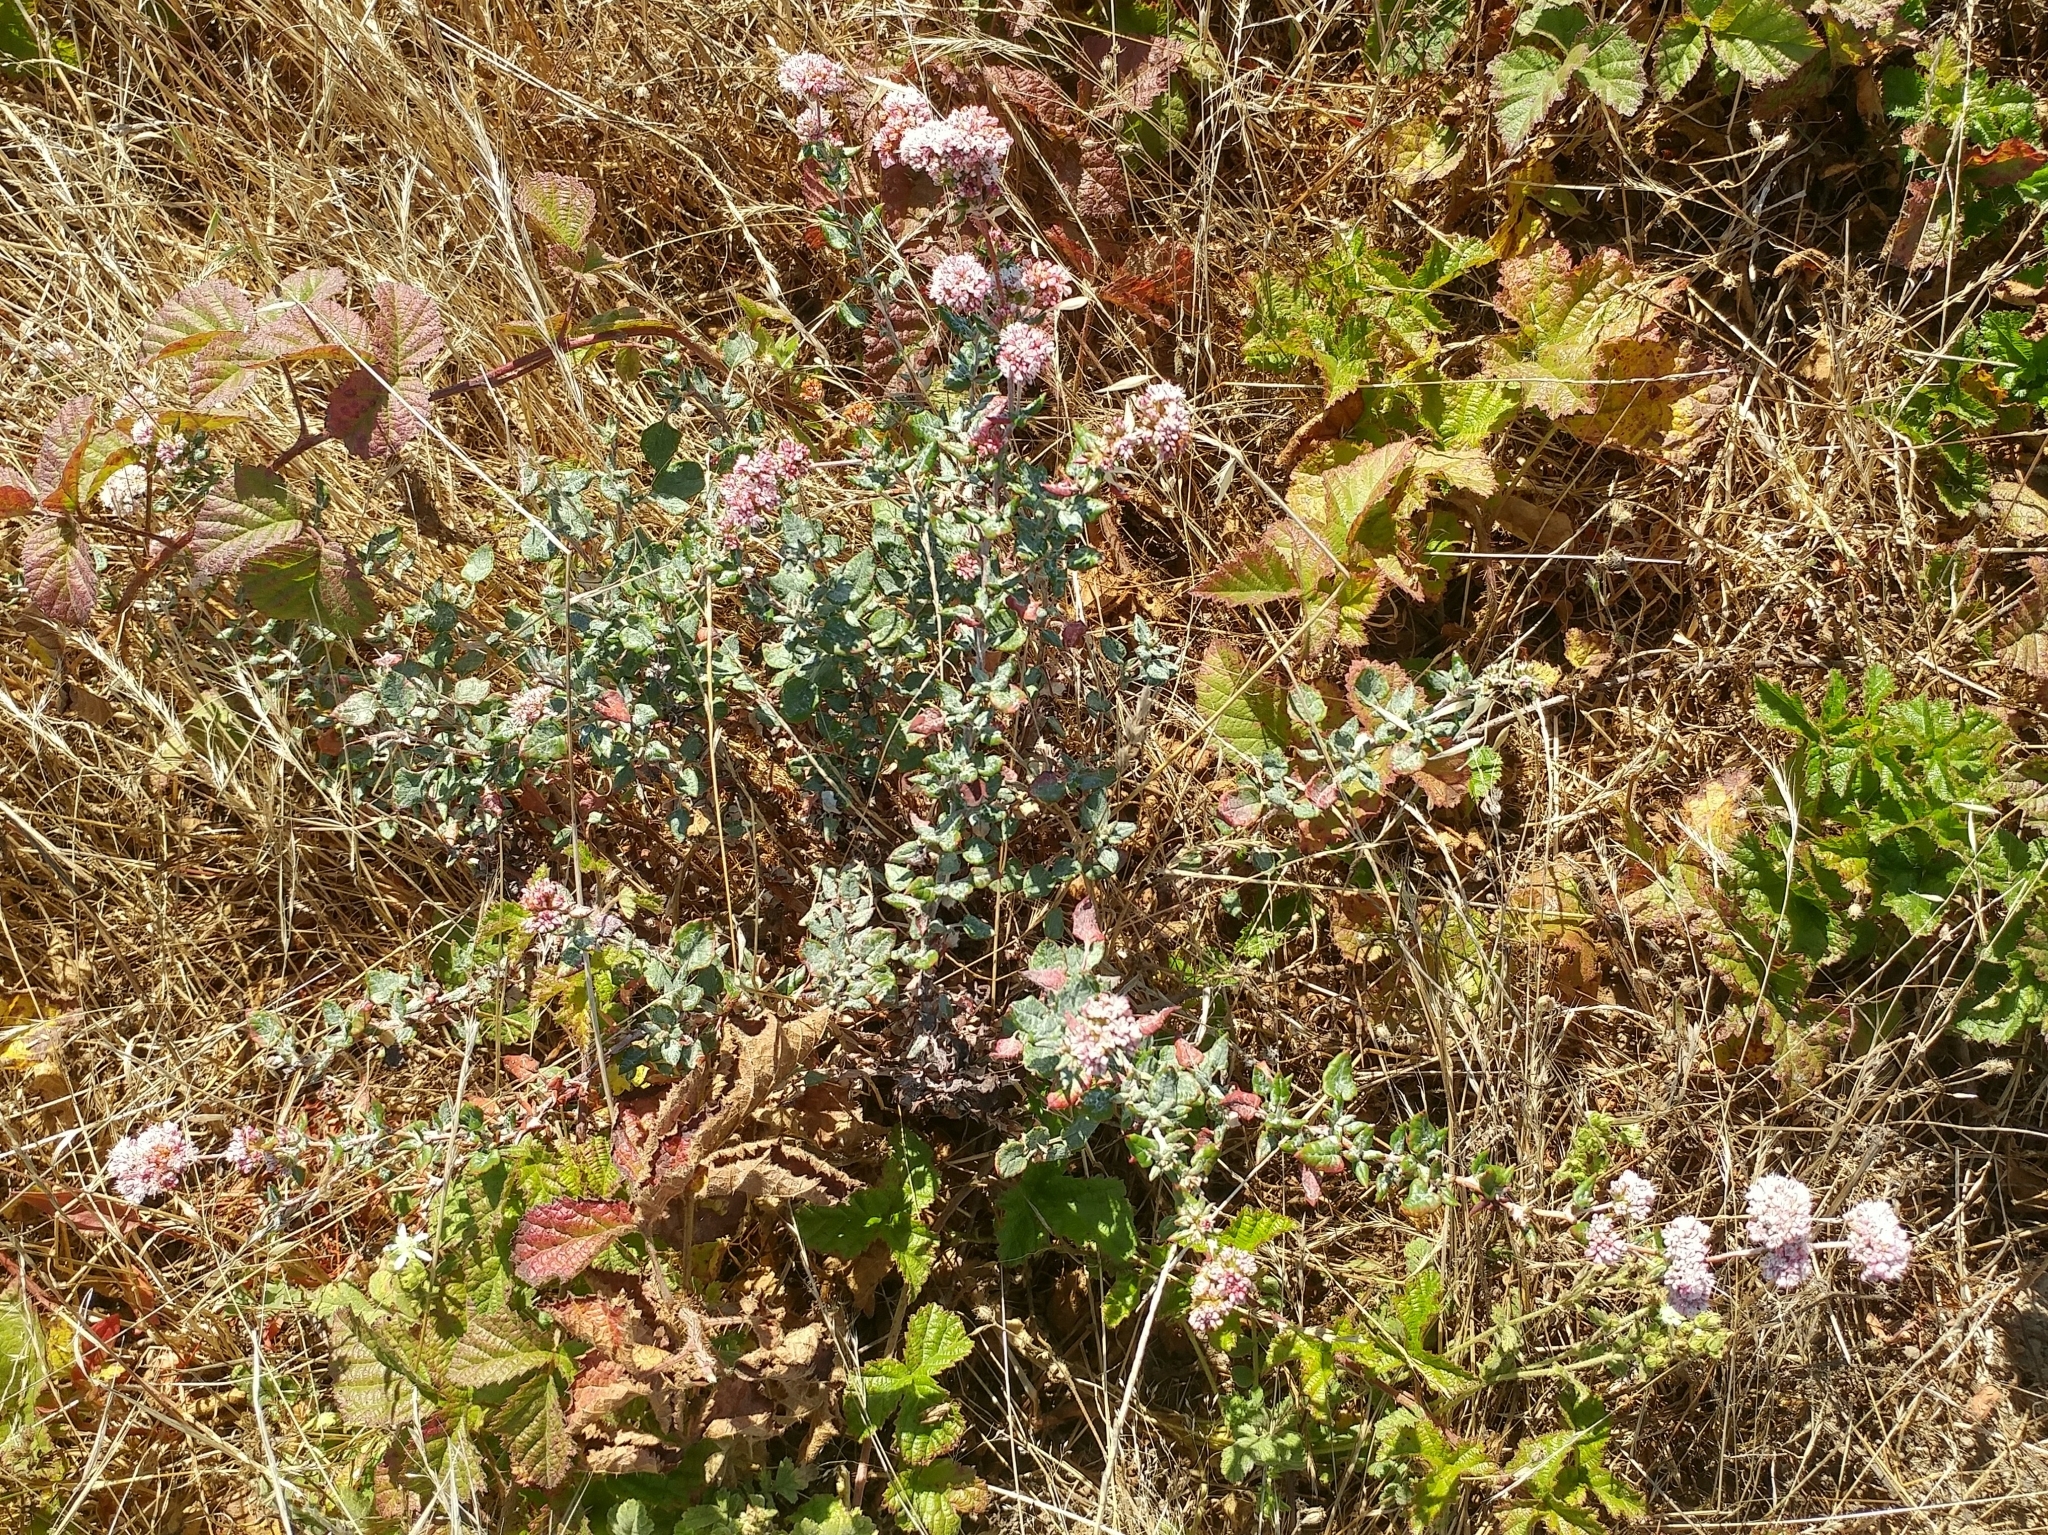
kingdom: Plantae
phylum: Tracheophyta
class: Magnoliopsida
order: Caryophyllales
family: Polygonaceae
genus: Eriogonum
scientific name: Eriogonum parvifolium
